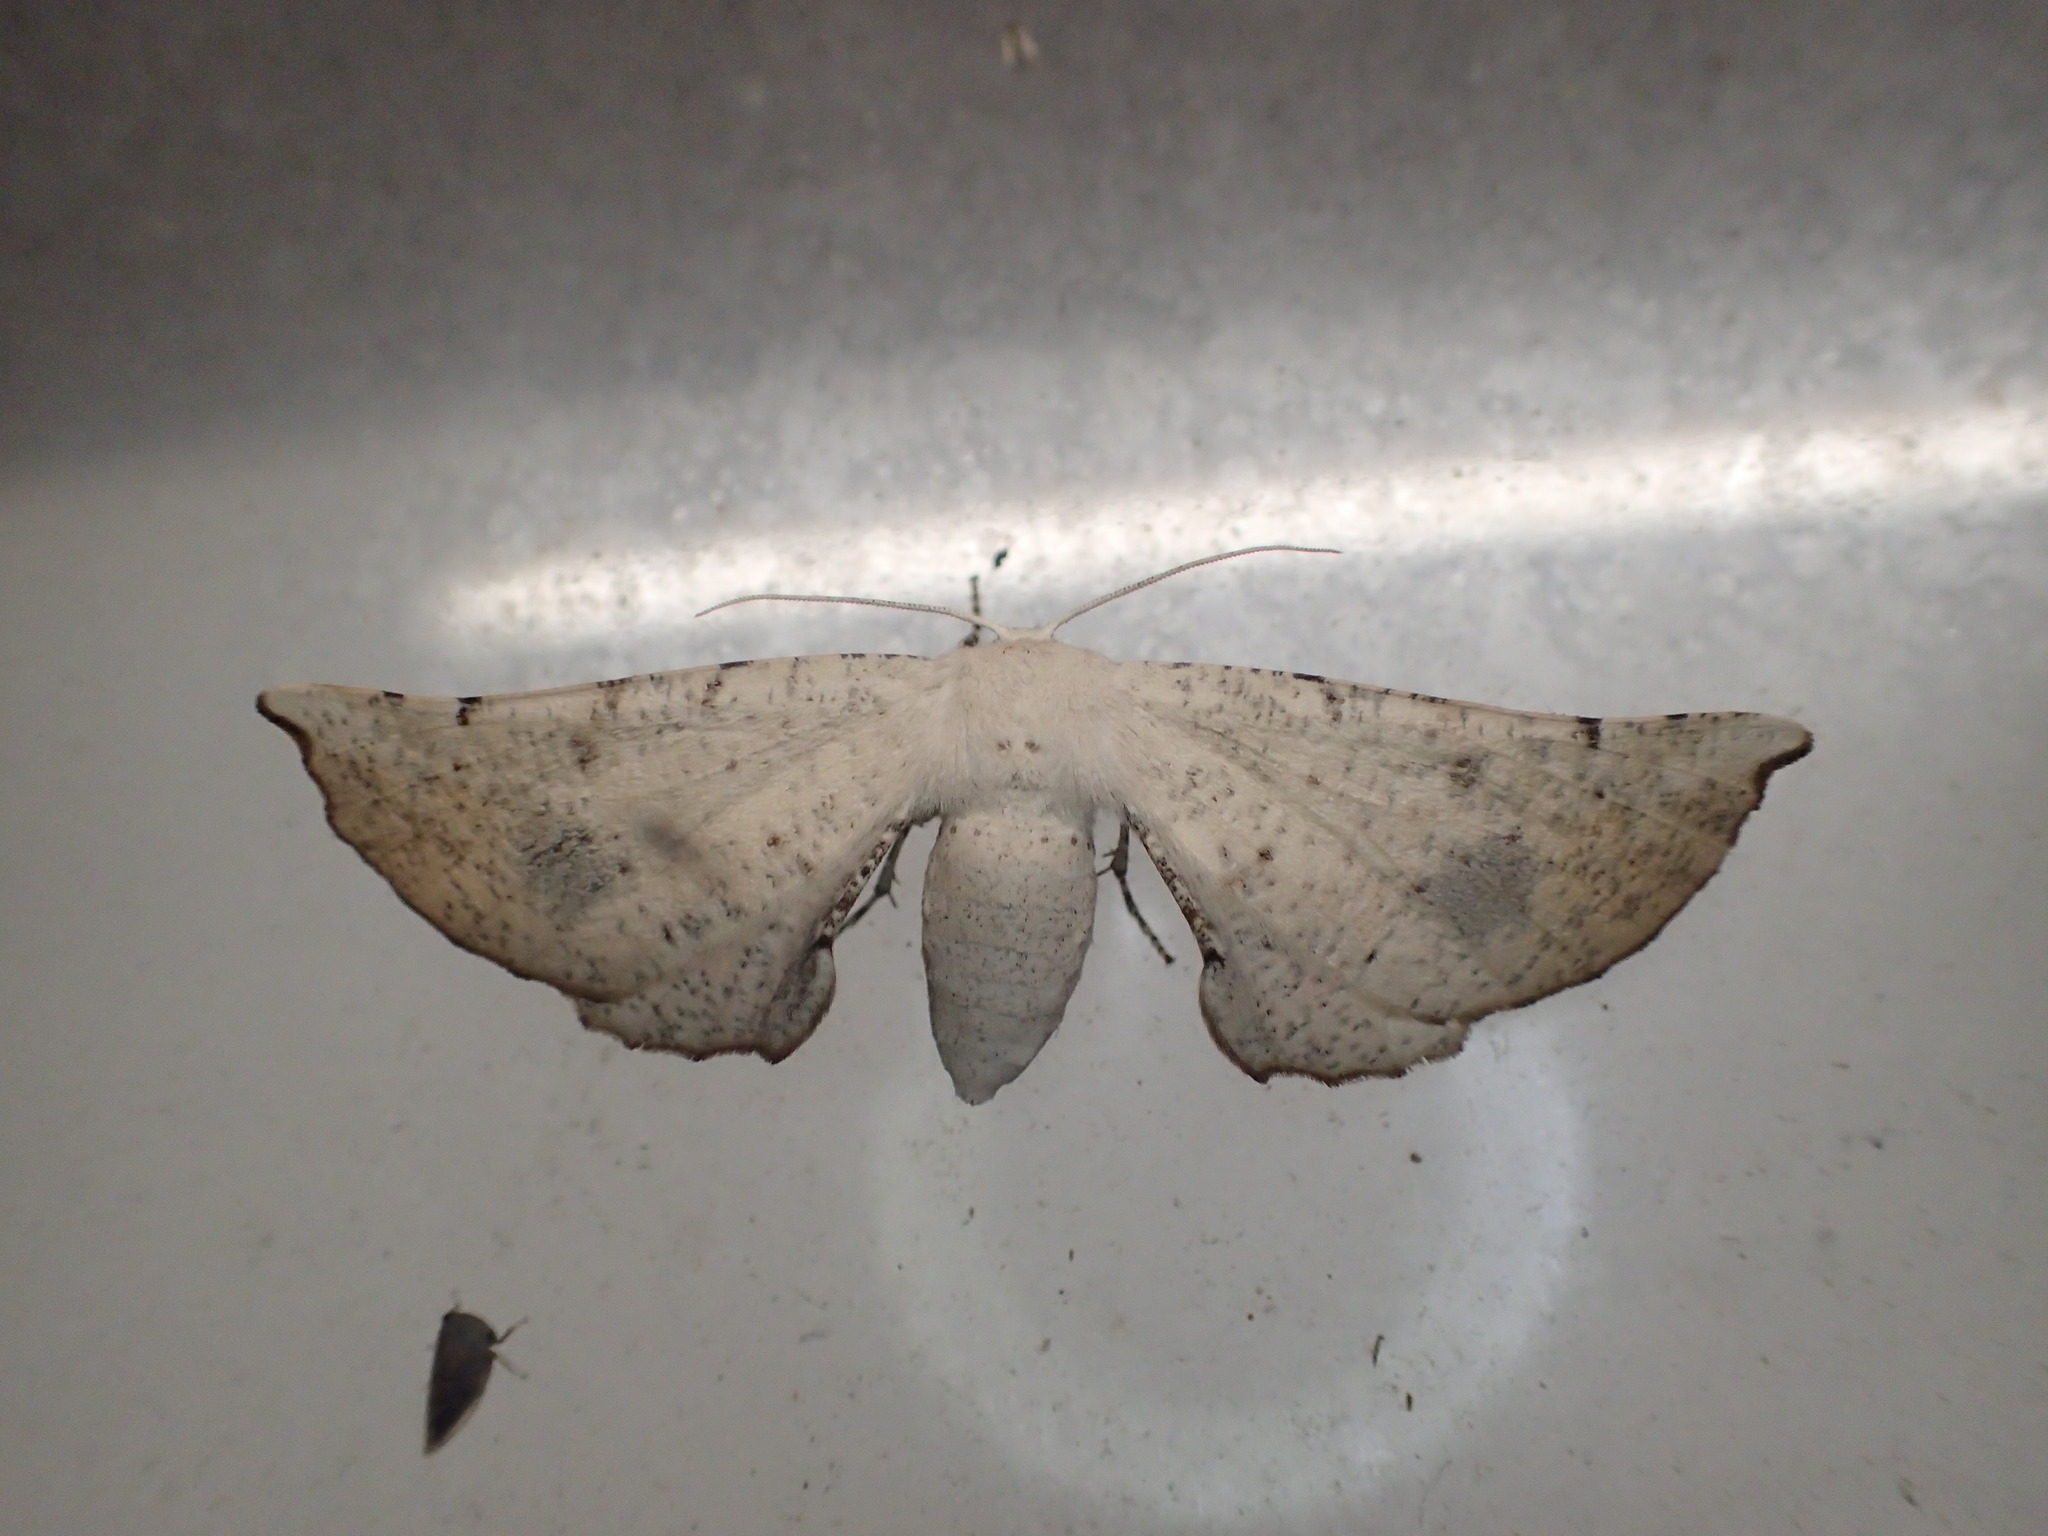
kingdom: Animalia
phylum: Arthropoda
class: Insecta
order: Lepidoptera
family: Geometridae
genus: Circopetes
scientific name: Circopetes obtusata
